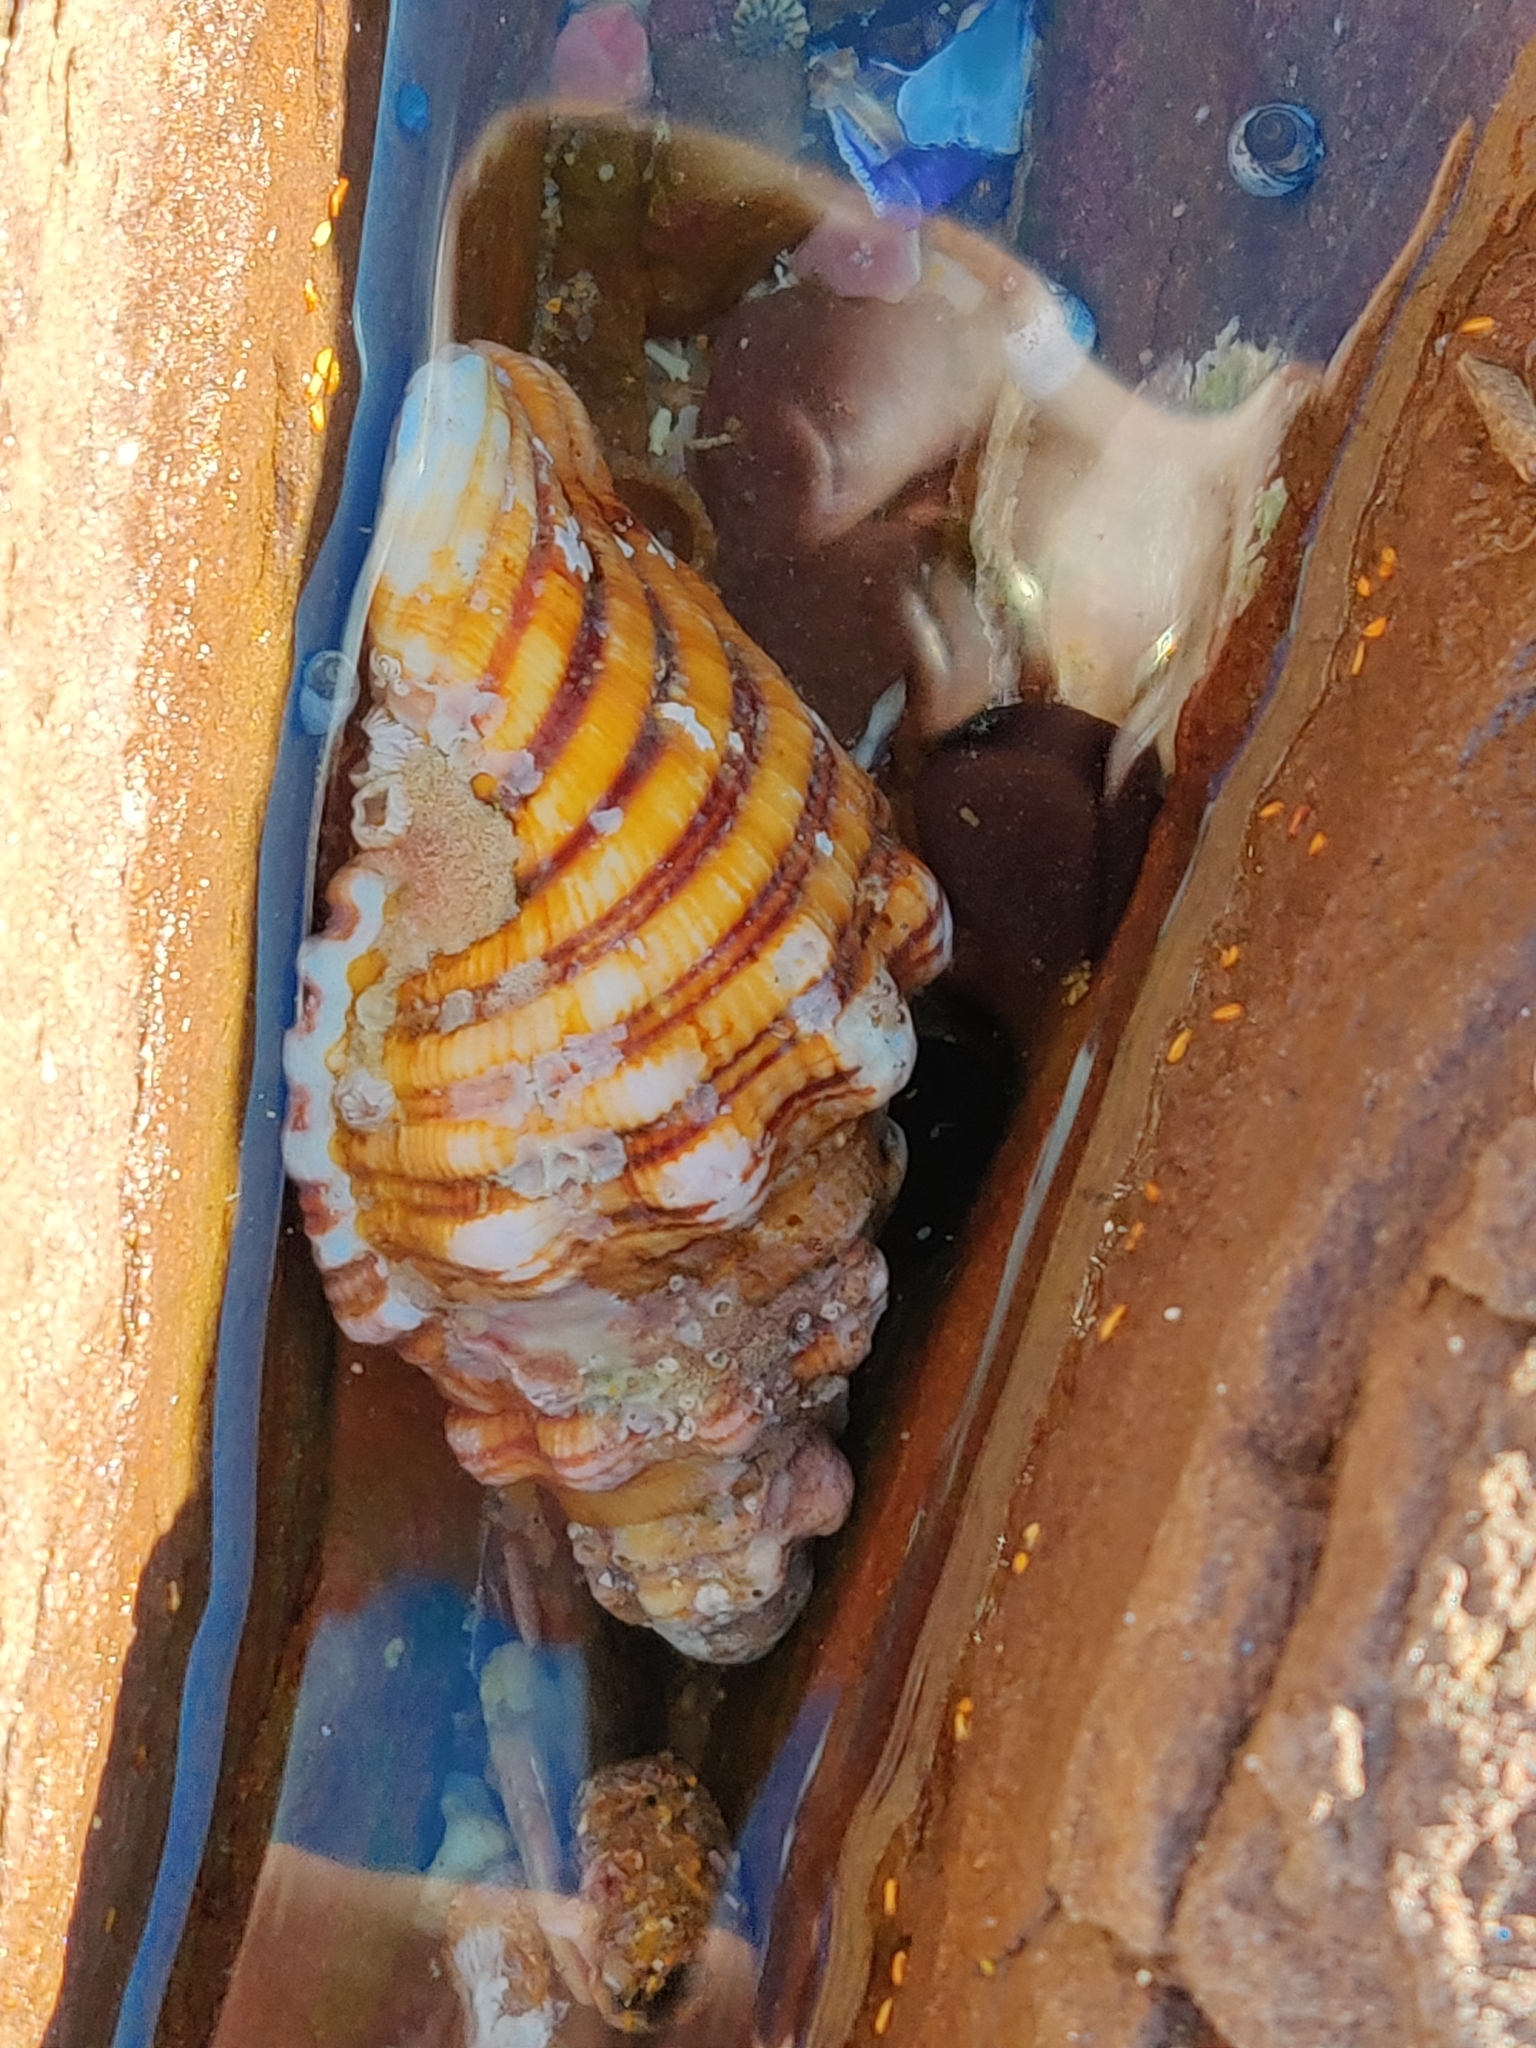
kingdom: Animalia
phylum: Mollusca
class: Gastropoda
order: Littorinimorpha
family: Cymatiidae
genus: Cabestana
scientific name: Cabestana spengleri
